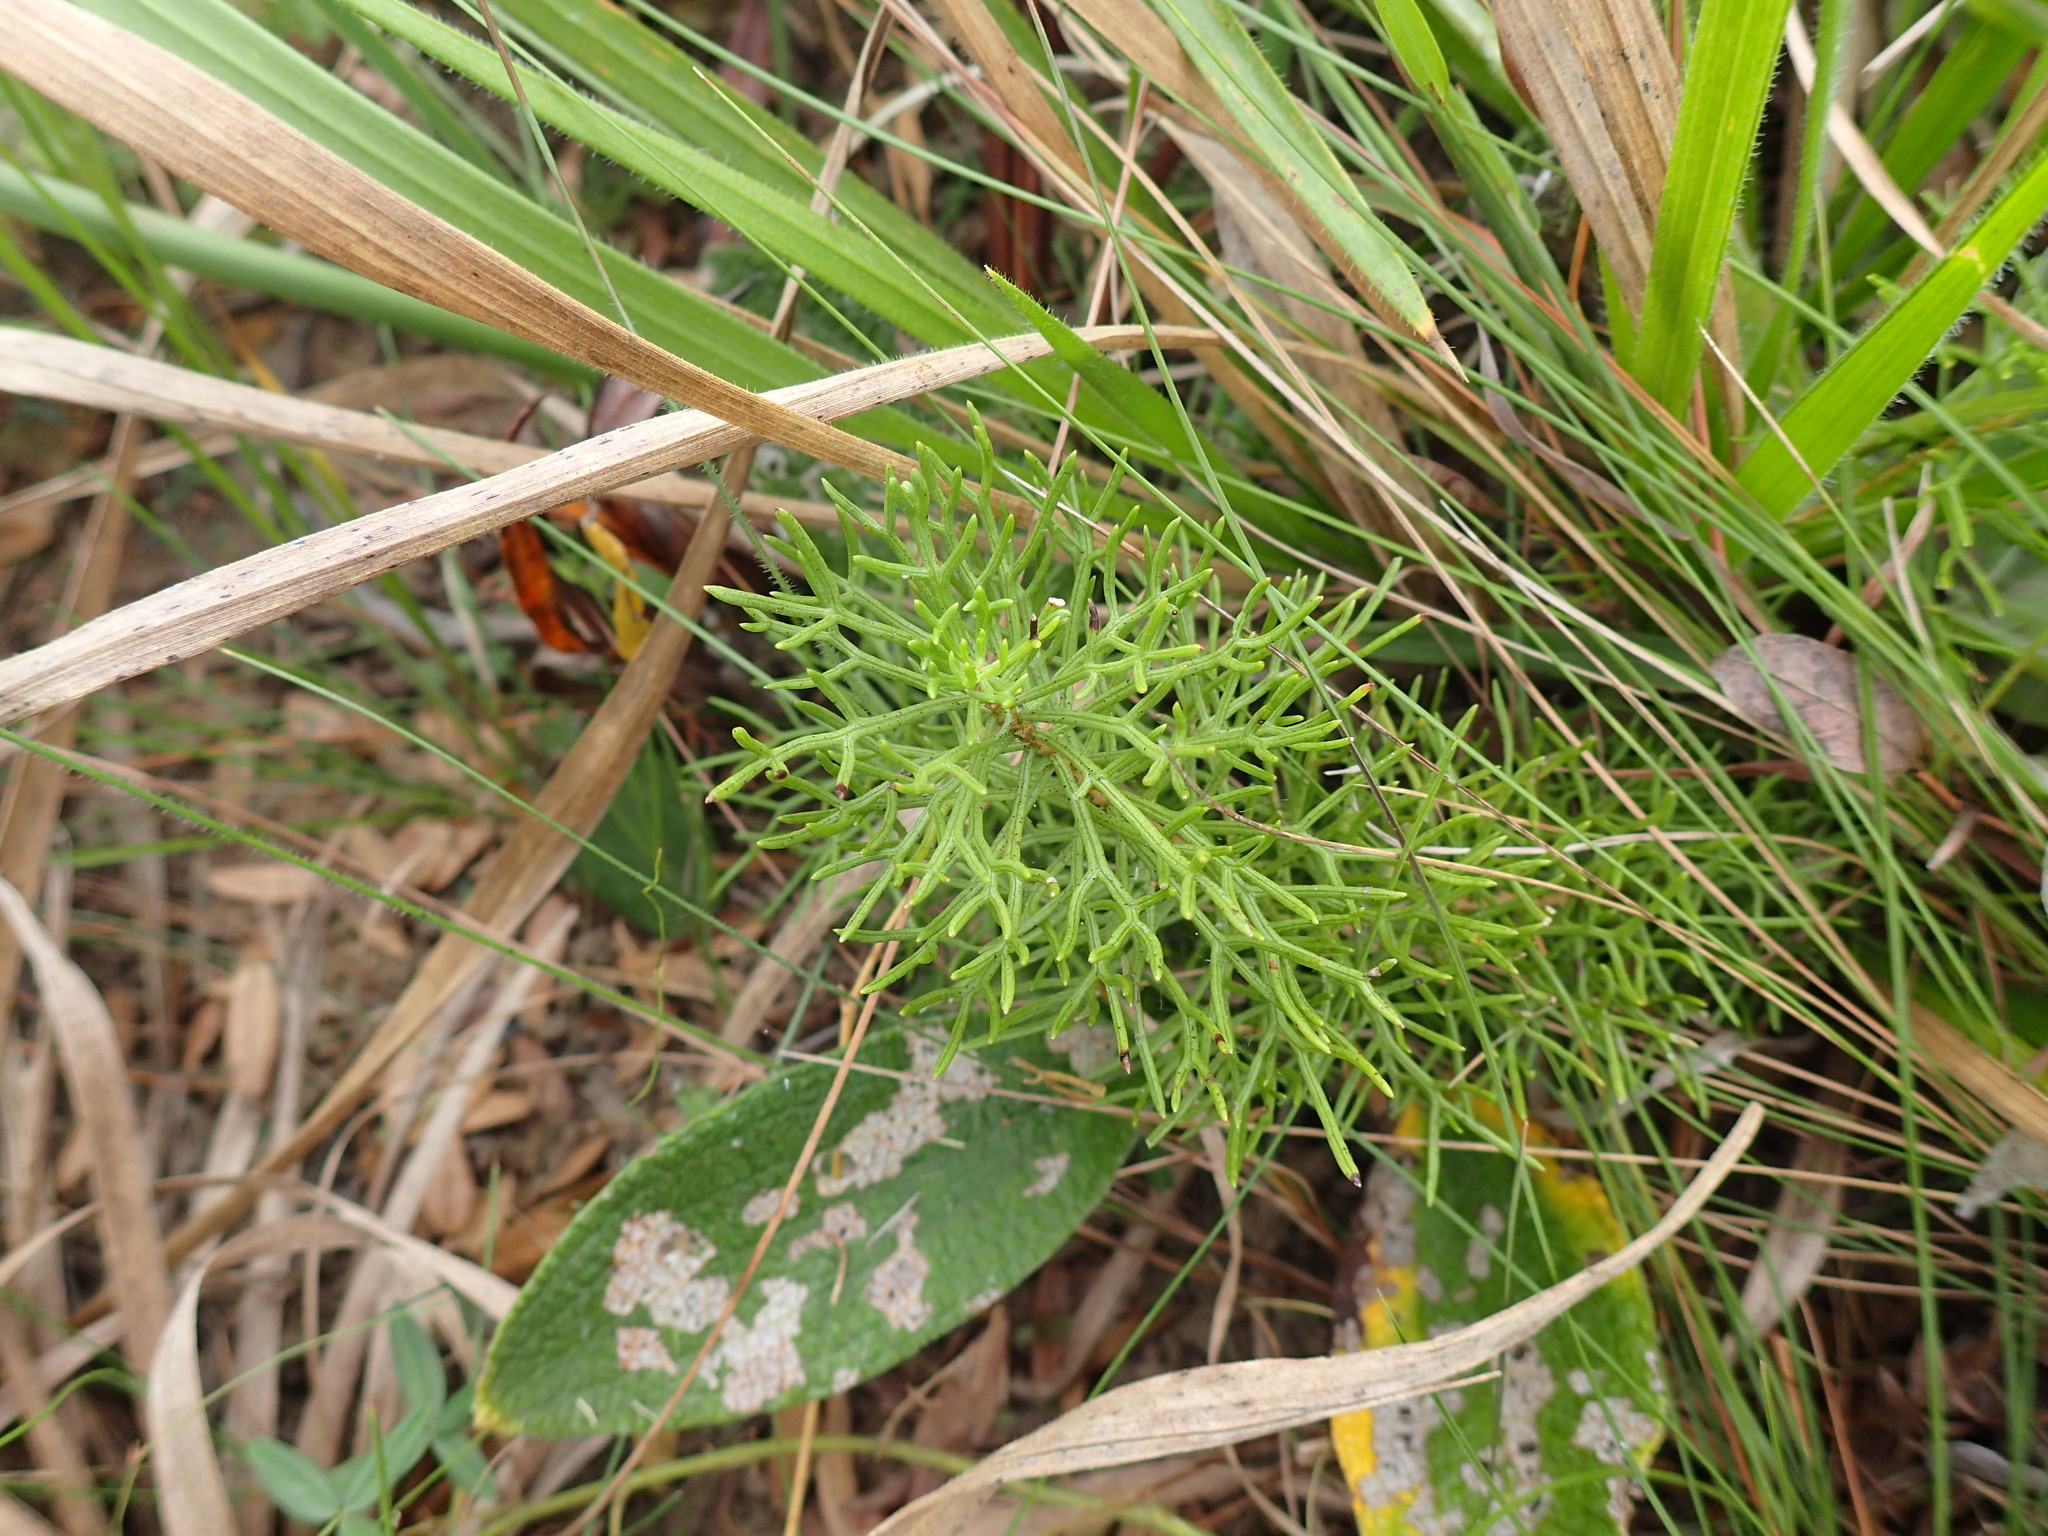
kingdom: Plantae
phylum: Tracheophyta
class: Magnoliopsida
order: Asterales
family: Asteraceae
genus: Senecio
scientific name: Senecio rhyncholaenus
